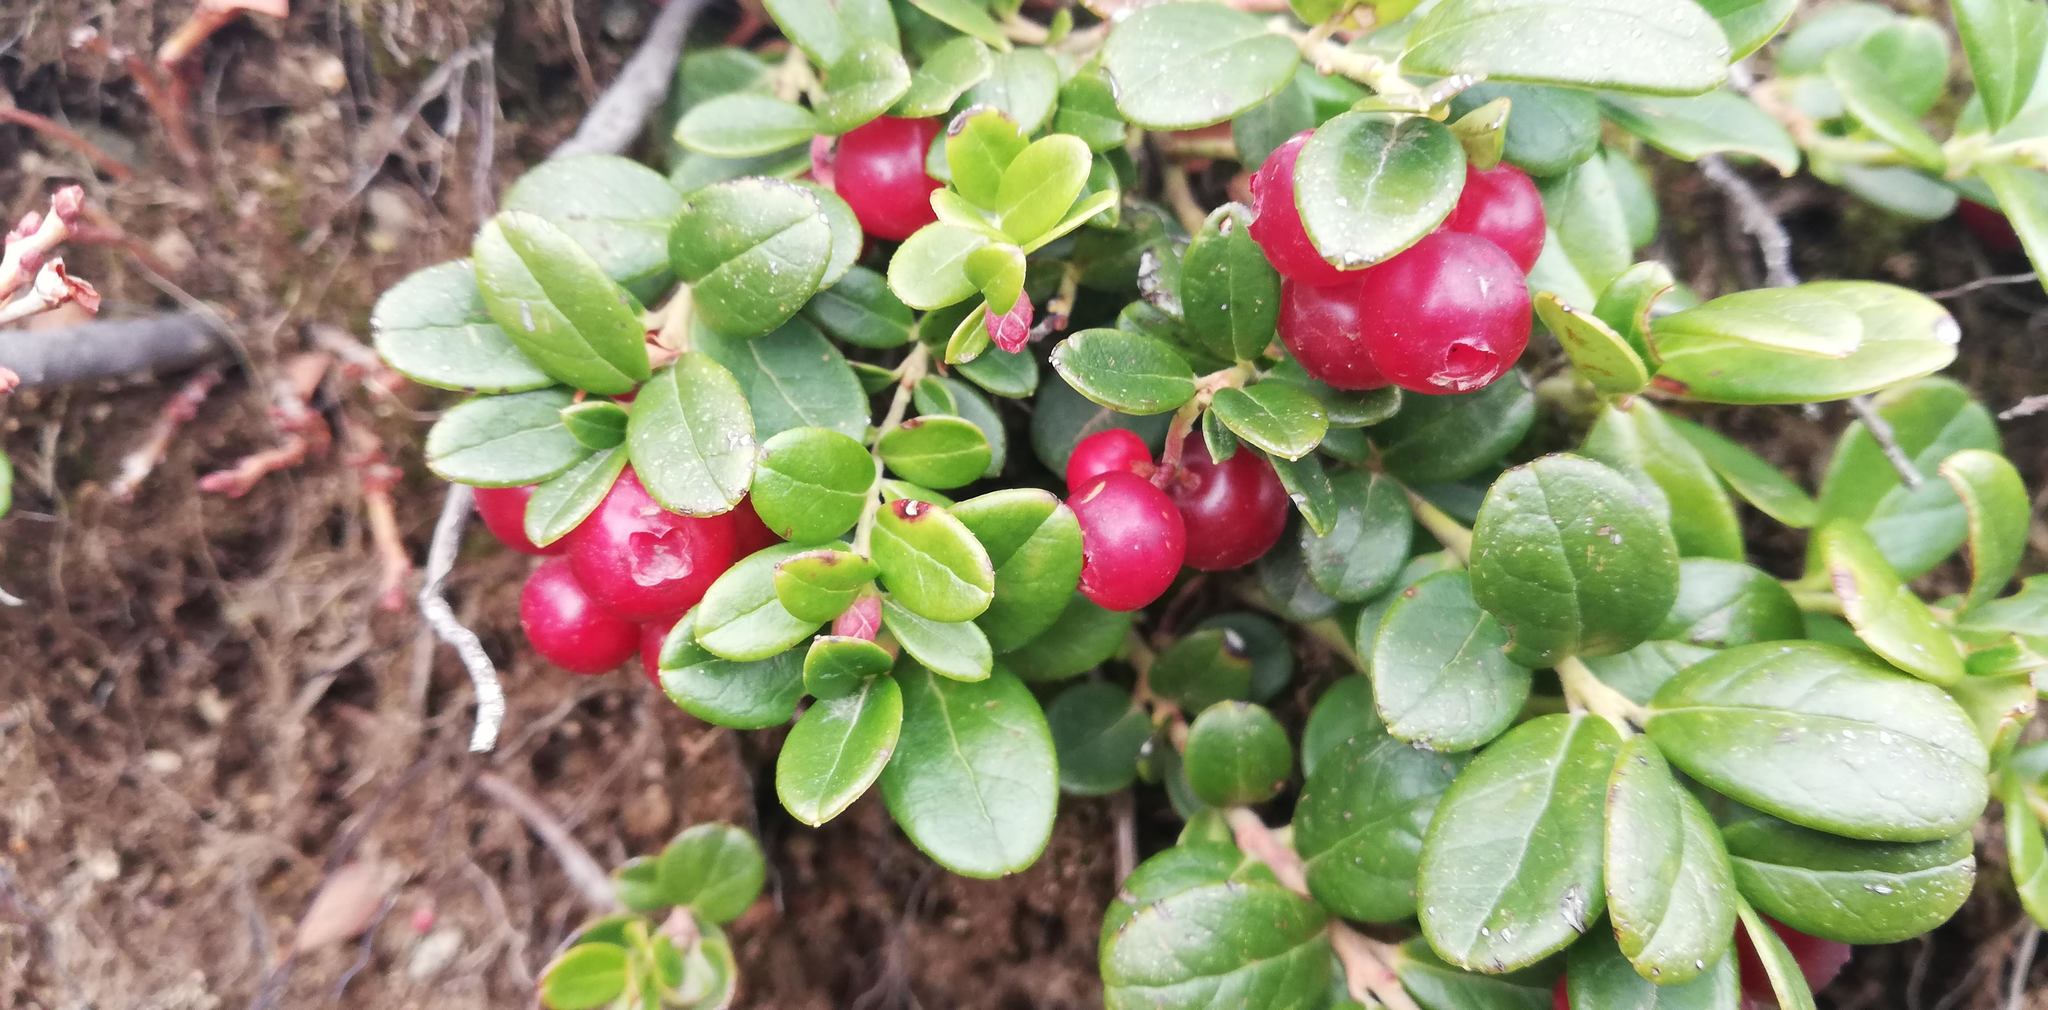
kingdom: Plantae
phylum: Tracheophyta
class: Magnoliopsida
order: Ericales
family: Ericaceae
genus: Vaccinium
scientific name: Vaccinium vitis-idaea
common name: Cowberry
